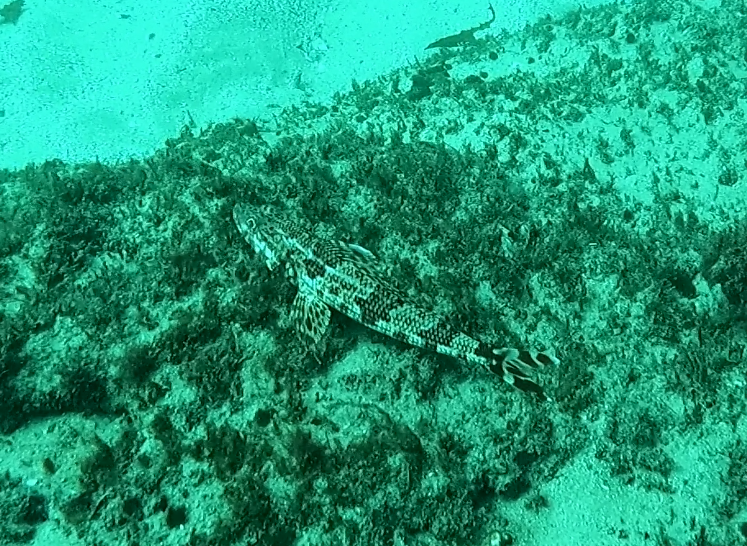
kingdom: Animalia
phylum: Chordata
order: Aulopiformes
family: Aulopidae
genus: Latropiscis
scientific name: Latropiscis purpurissatus
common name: Sergeant baker
